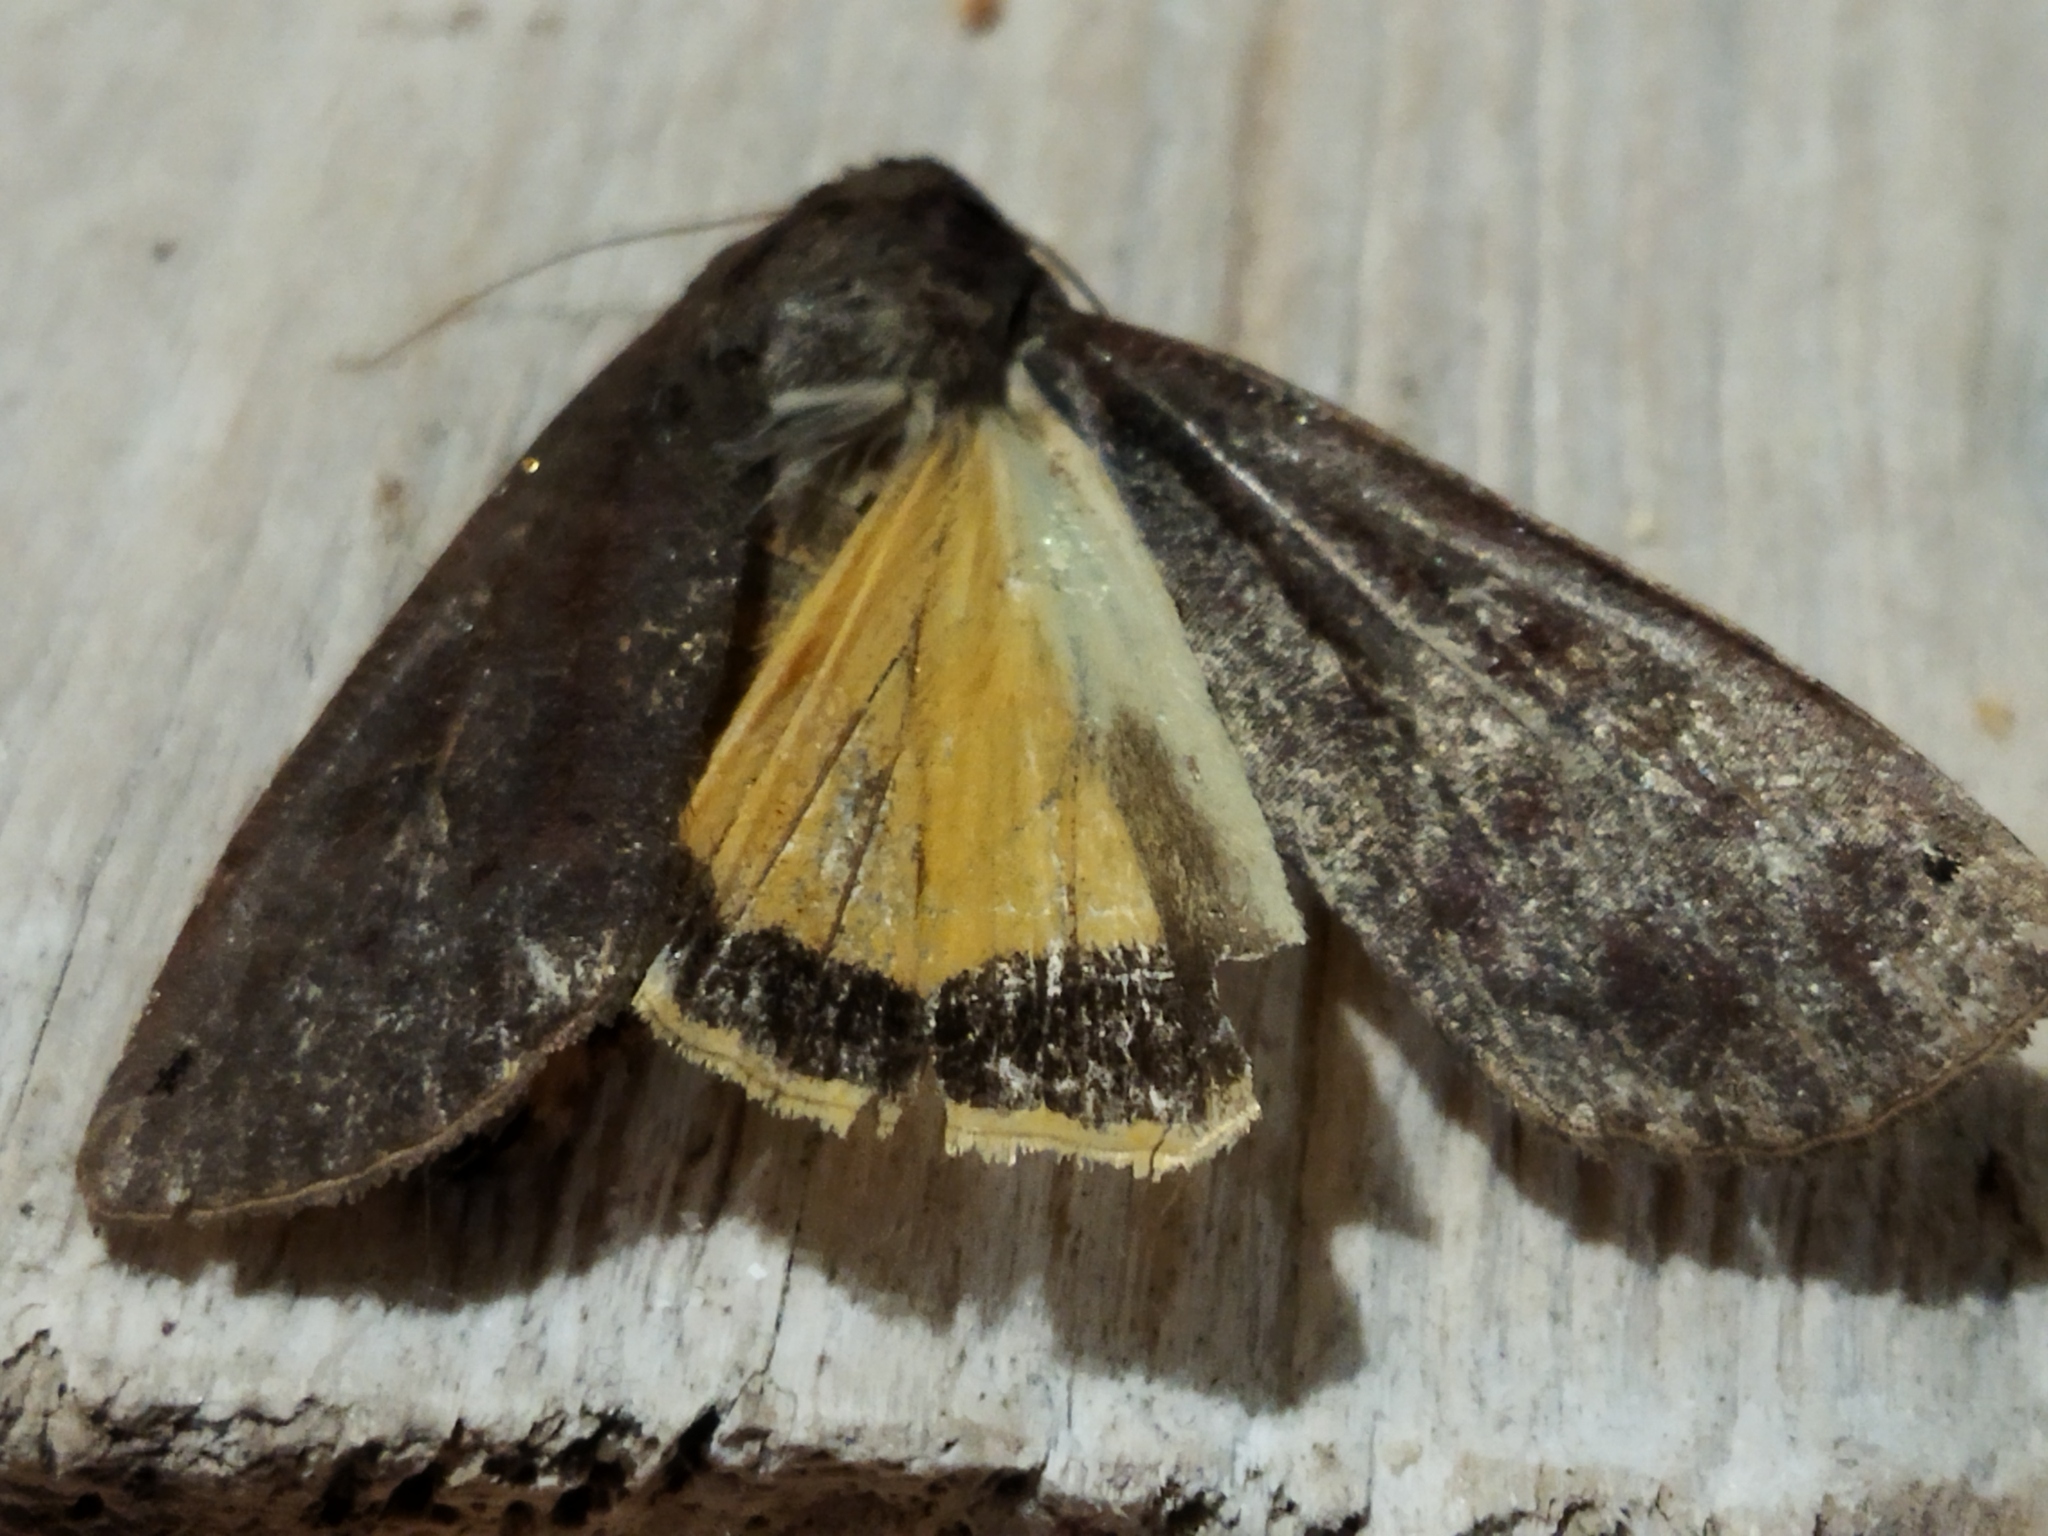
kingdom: Animalia
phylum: Arthropoda
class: Insecta
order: Lepidoptera
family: Noctuidae
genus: Noctua
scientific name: Noctua pronuba
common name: Large yellow underwing
